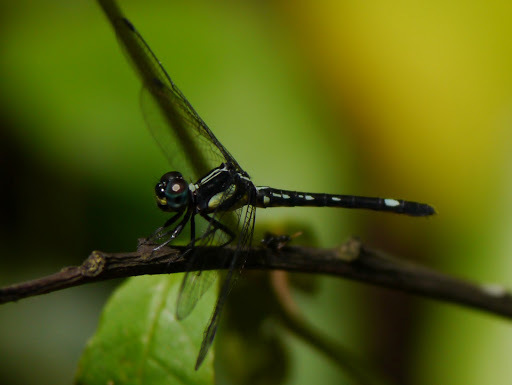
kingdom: Animalia
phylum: Arthropoda
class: Insecta
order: Odonata
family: Libellulidae
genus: Neodythemis
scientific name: Neodythemis klingi
